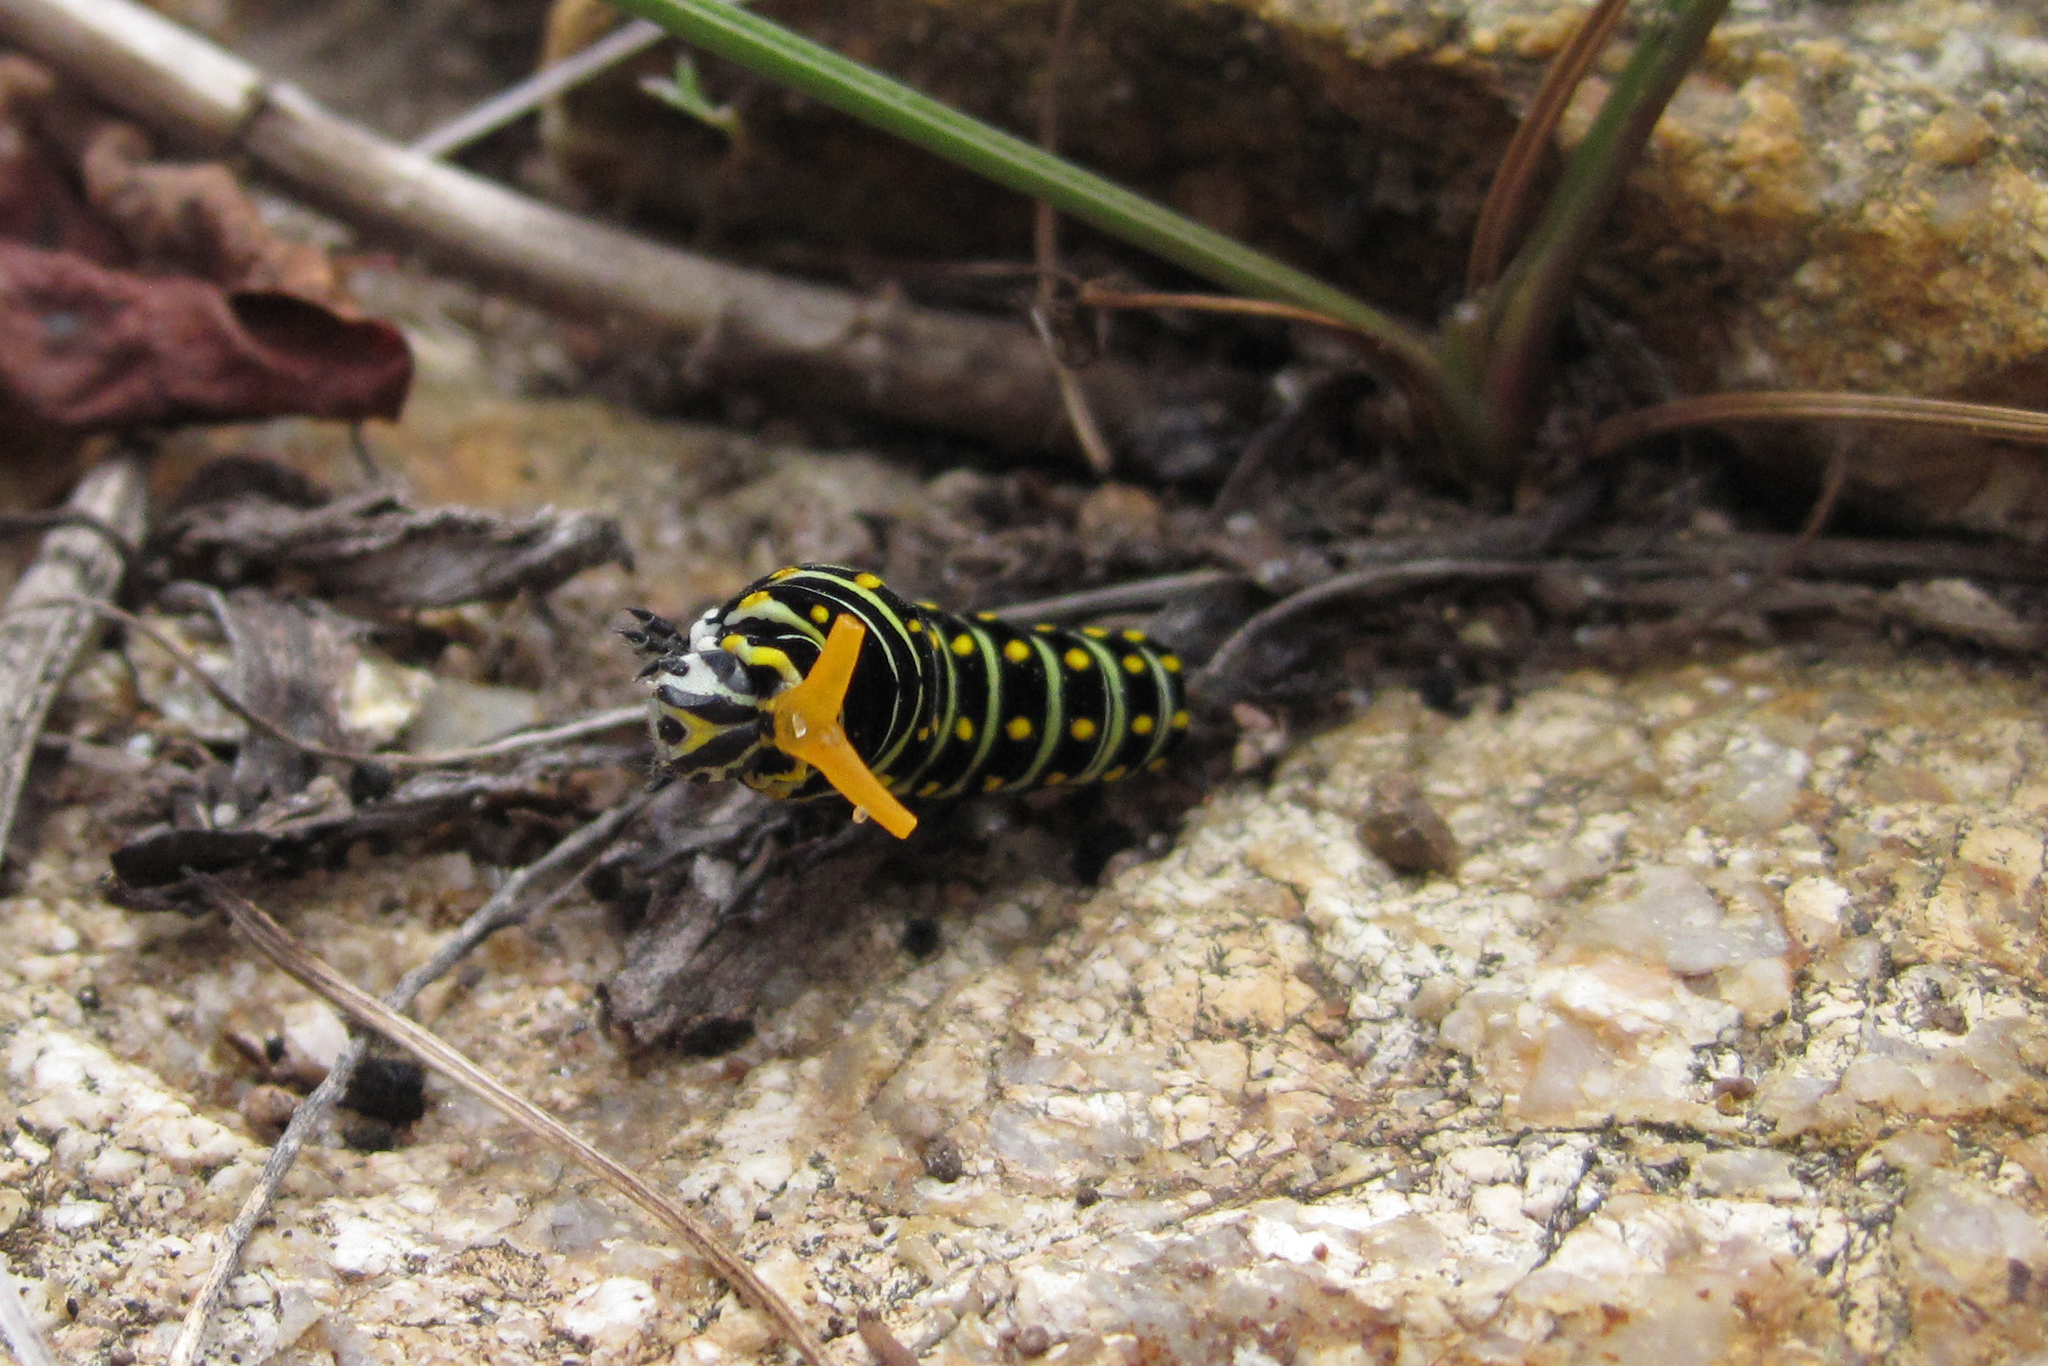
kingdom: Animalia
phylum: Arthropoda
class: Insecta
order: Lepidoptera
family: Papilionidae
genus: Papilio
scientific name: Papilio polyxenes
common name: Black swallowtail
